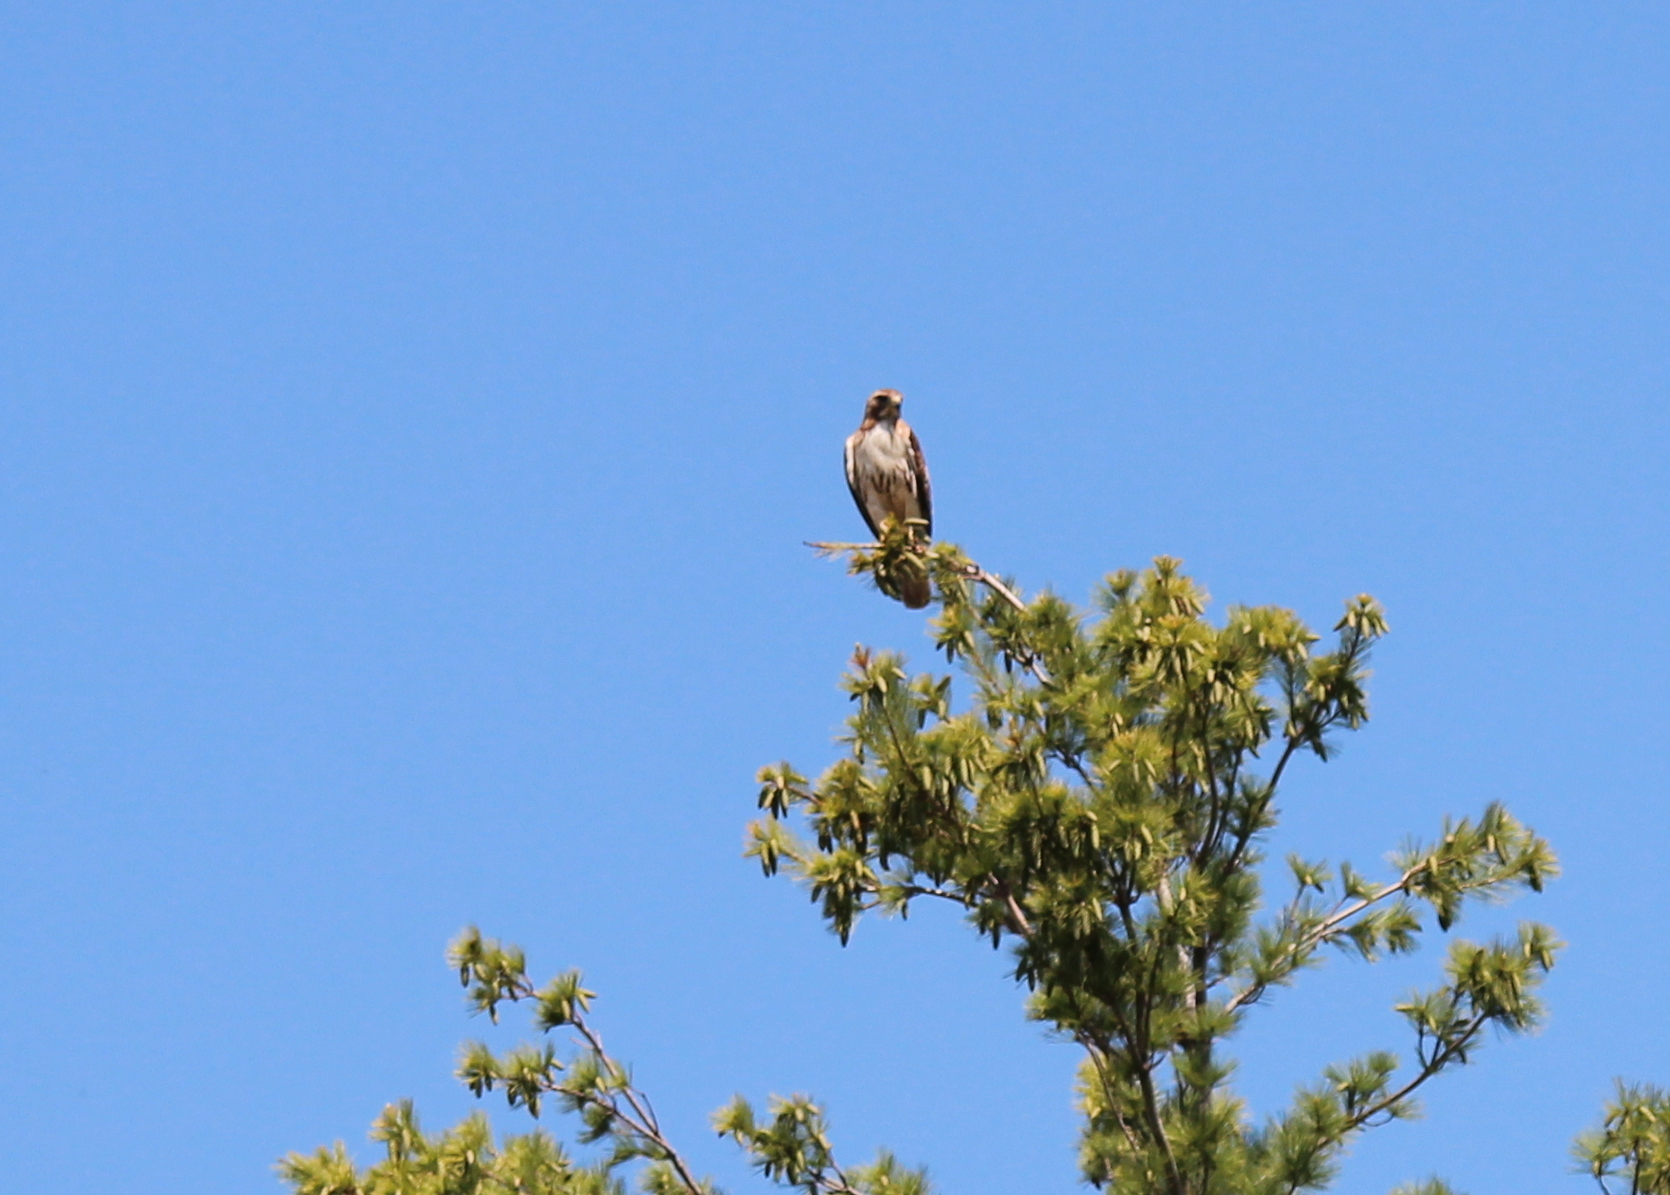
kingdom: Animalia
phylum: Chordata
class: Aves
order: Accipitriformes
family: Accipitridae
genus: Buteo
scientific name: Buteo jamaicensis
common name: Red-tailed hawk
